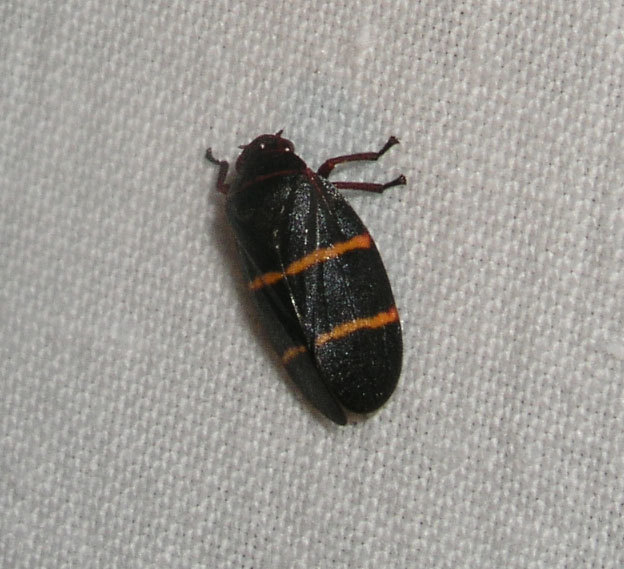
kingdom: Animalia
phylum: Arthropoda
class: Insecta
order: Hemiptera
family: Cercopidae
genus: Prosapia
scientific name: Prosapia bicincta
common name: Twolined spittlebug
